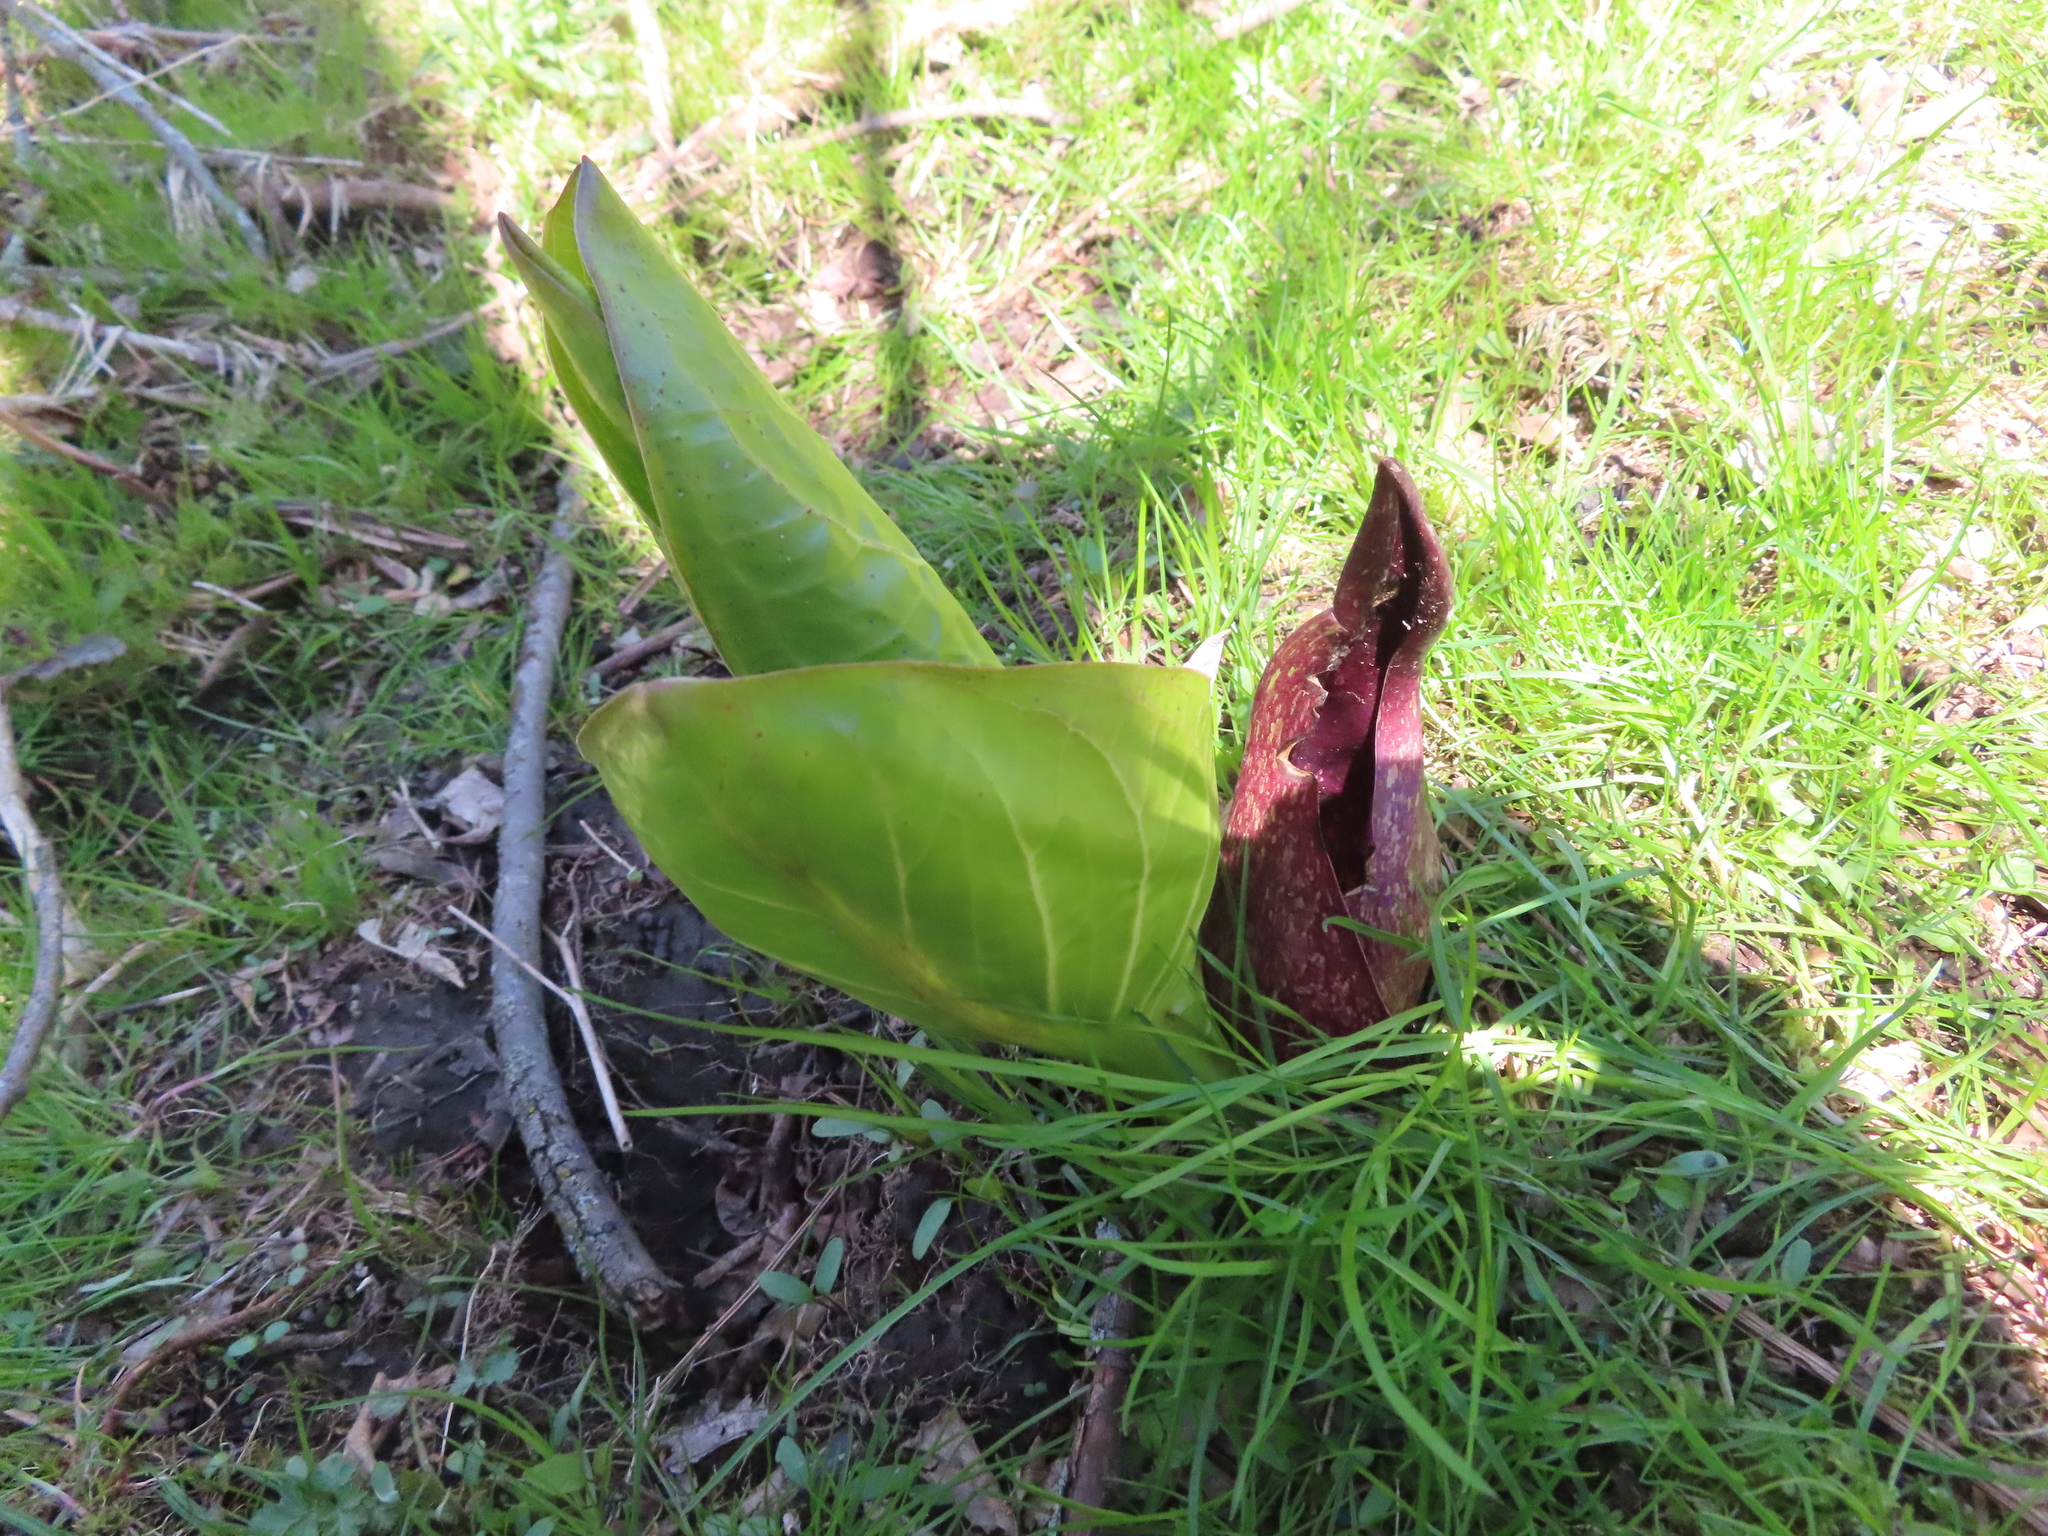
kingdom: Plantae
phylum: Tracheophyta
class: Liliopsida
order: Alismatales
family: Araceae
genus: Symplocarpus
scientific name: Symplocarpus foetidus
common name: Eastern skunk cabbage
